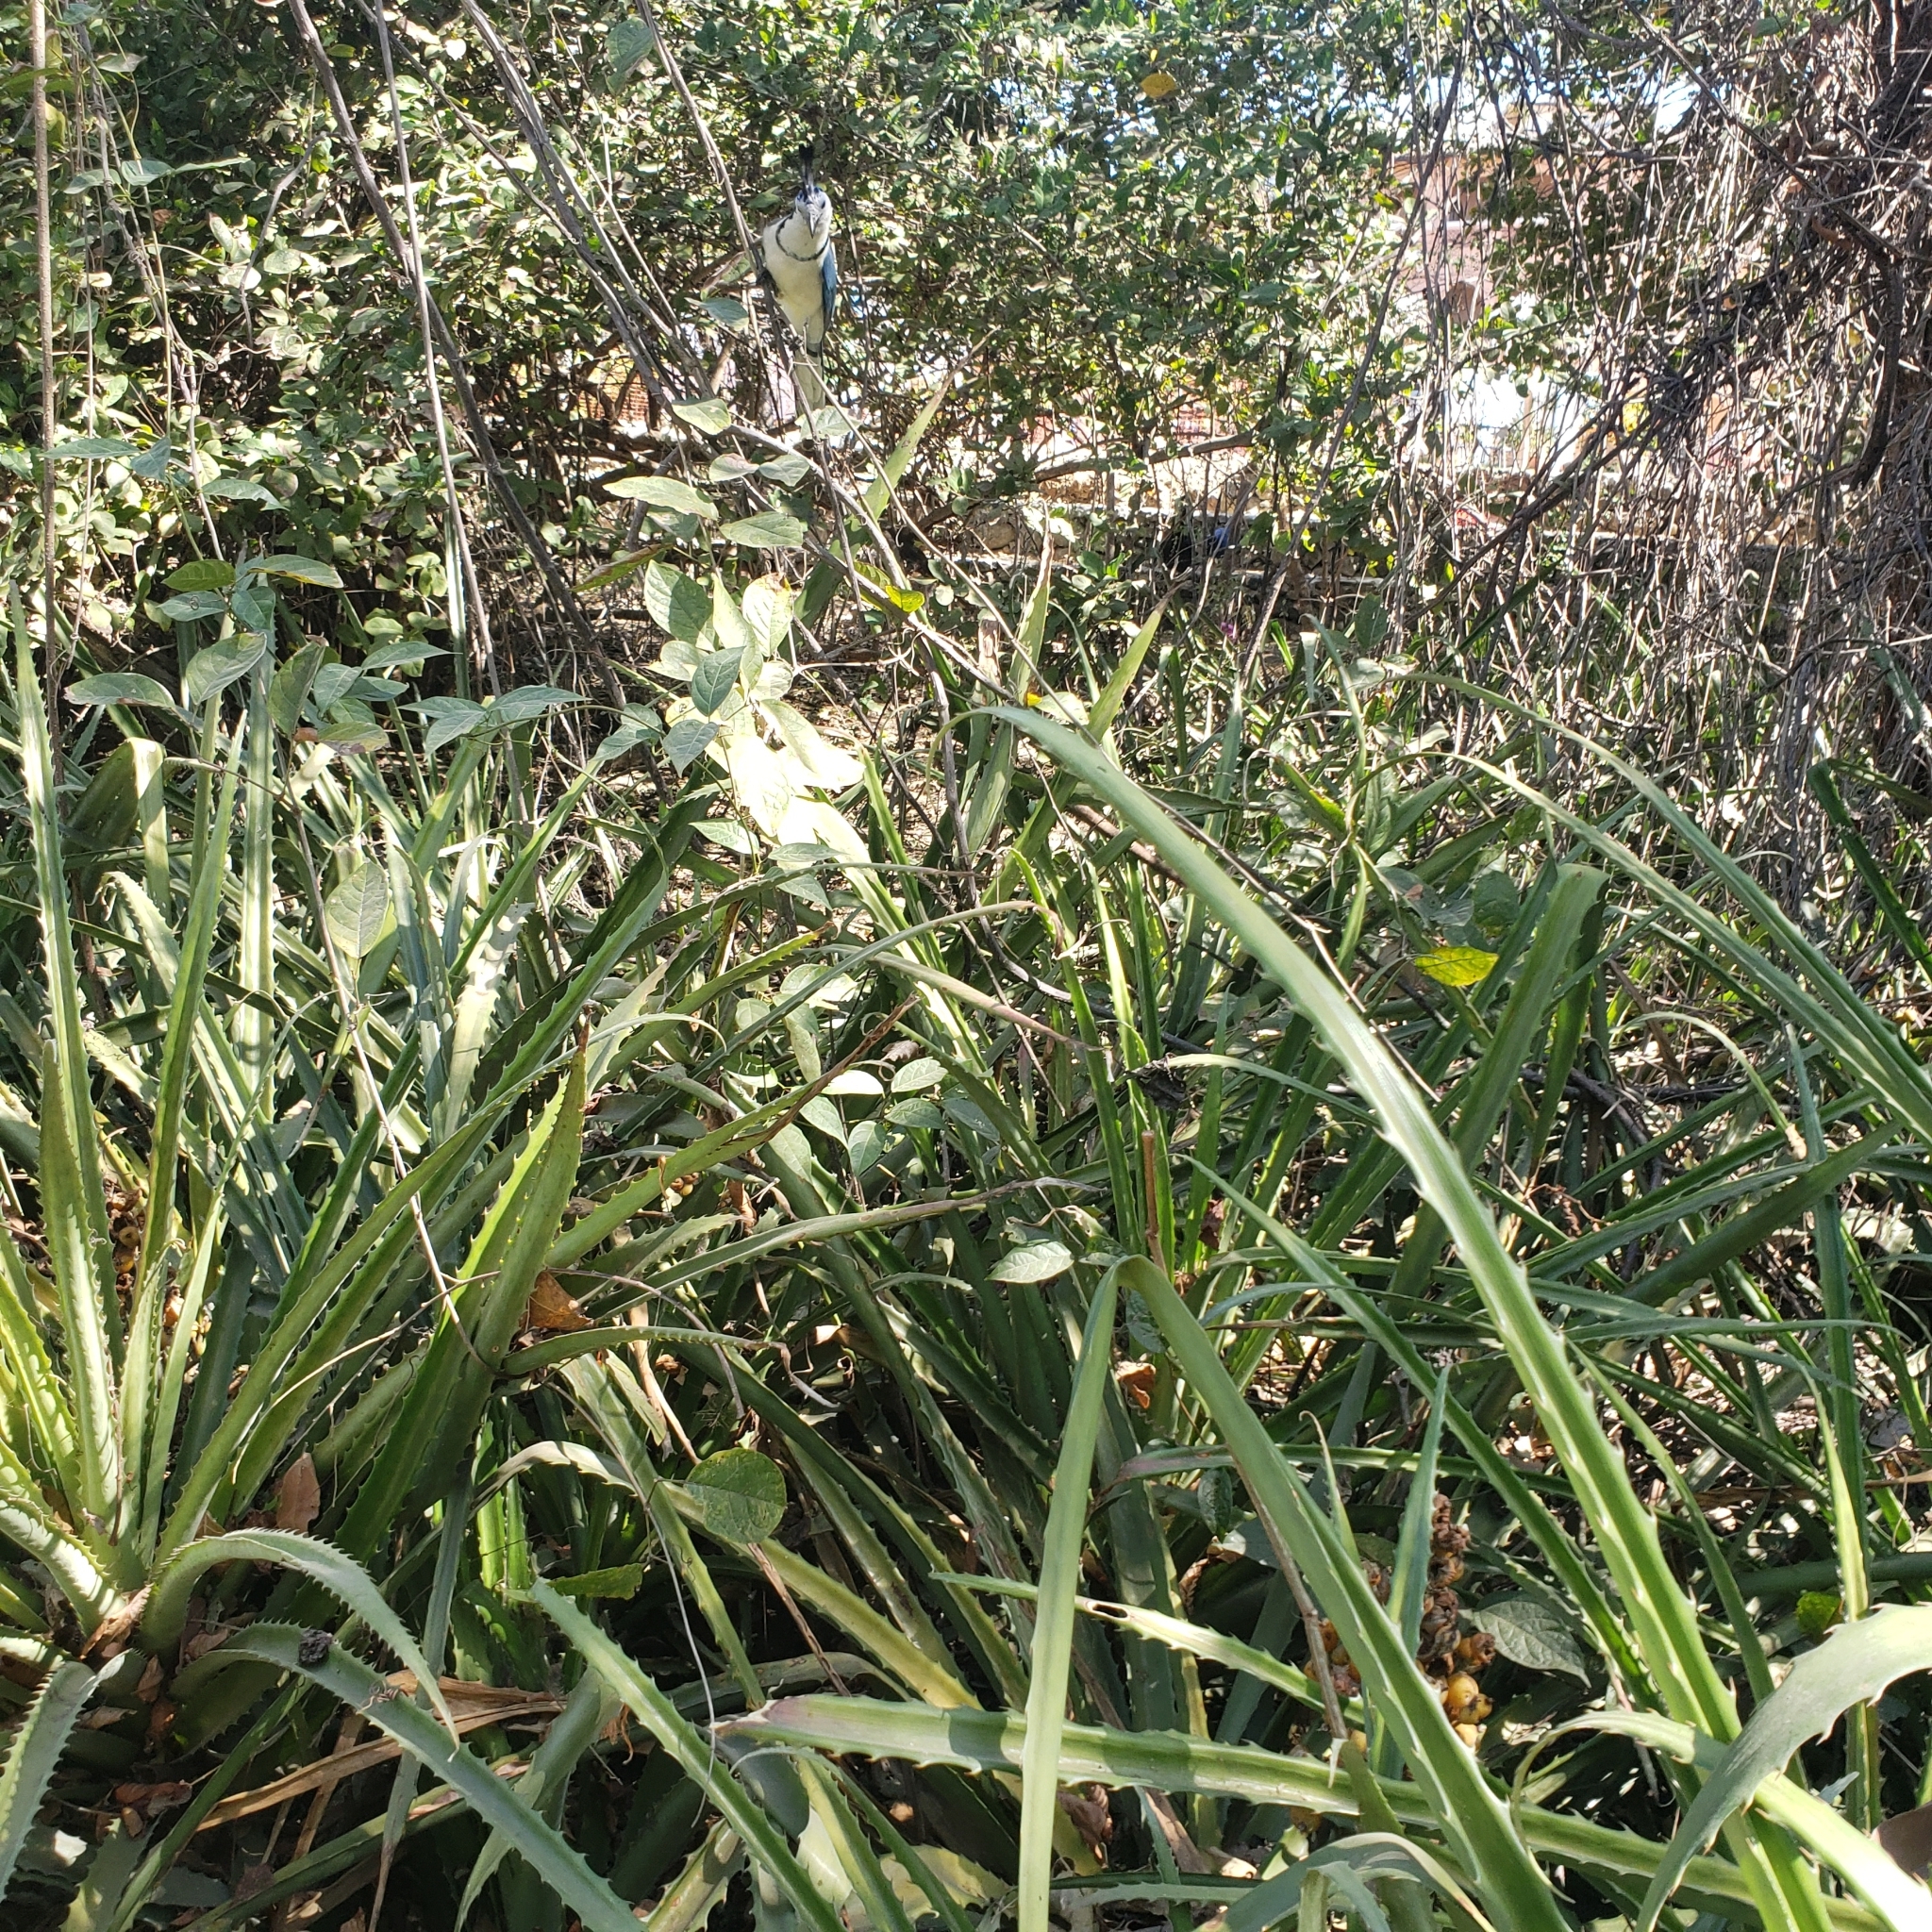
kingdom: Animalia
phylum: Chordata
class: Aves
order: Passeriformes
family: Corvidae
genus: Calocitta
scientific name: Calocitta formosa
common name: White-throated magpie-jay
